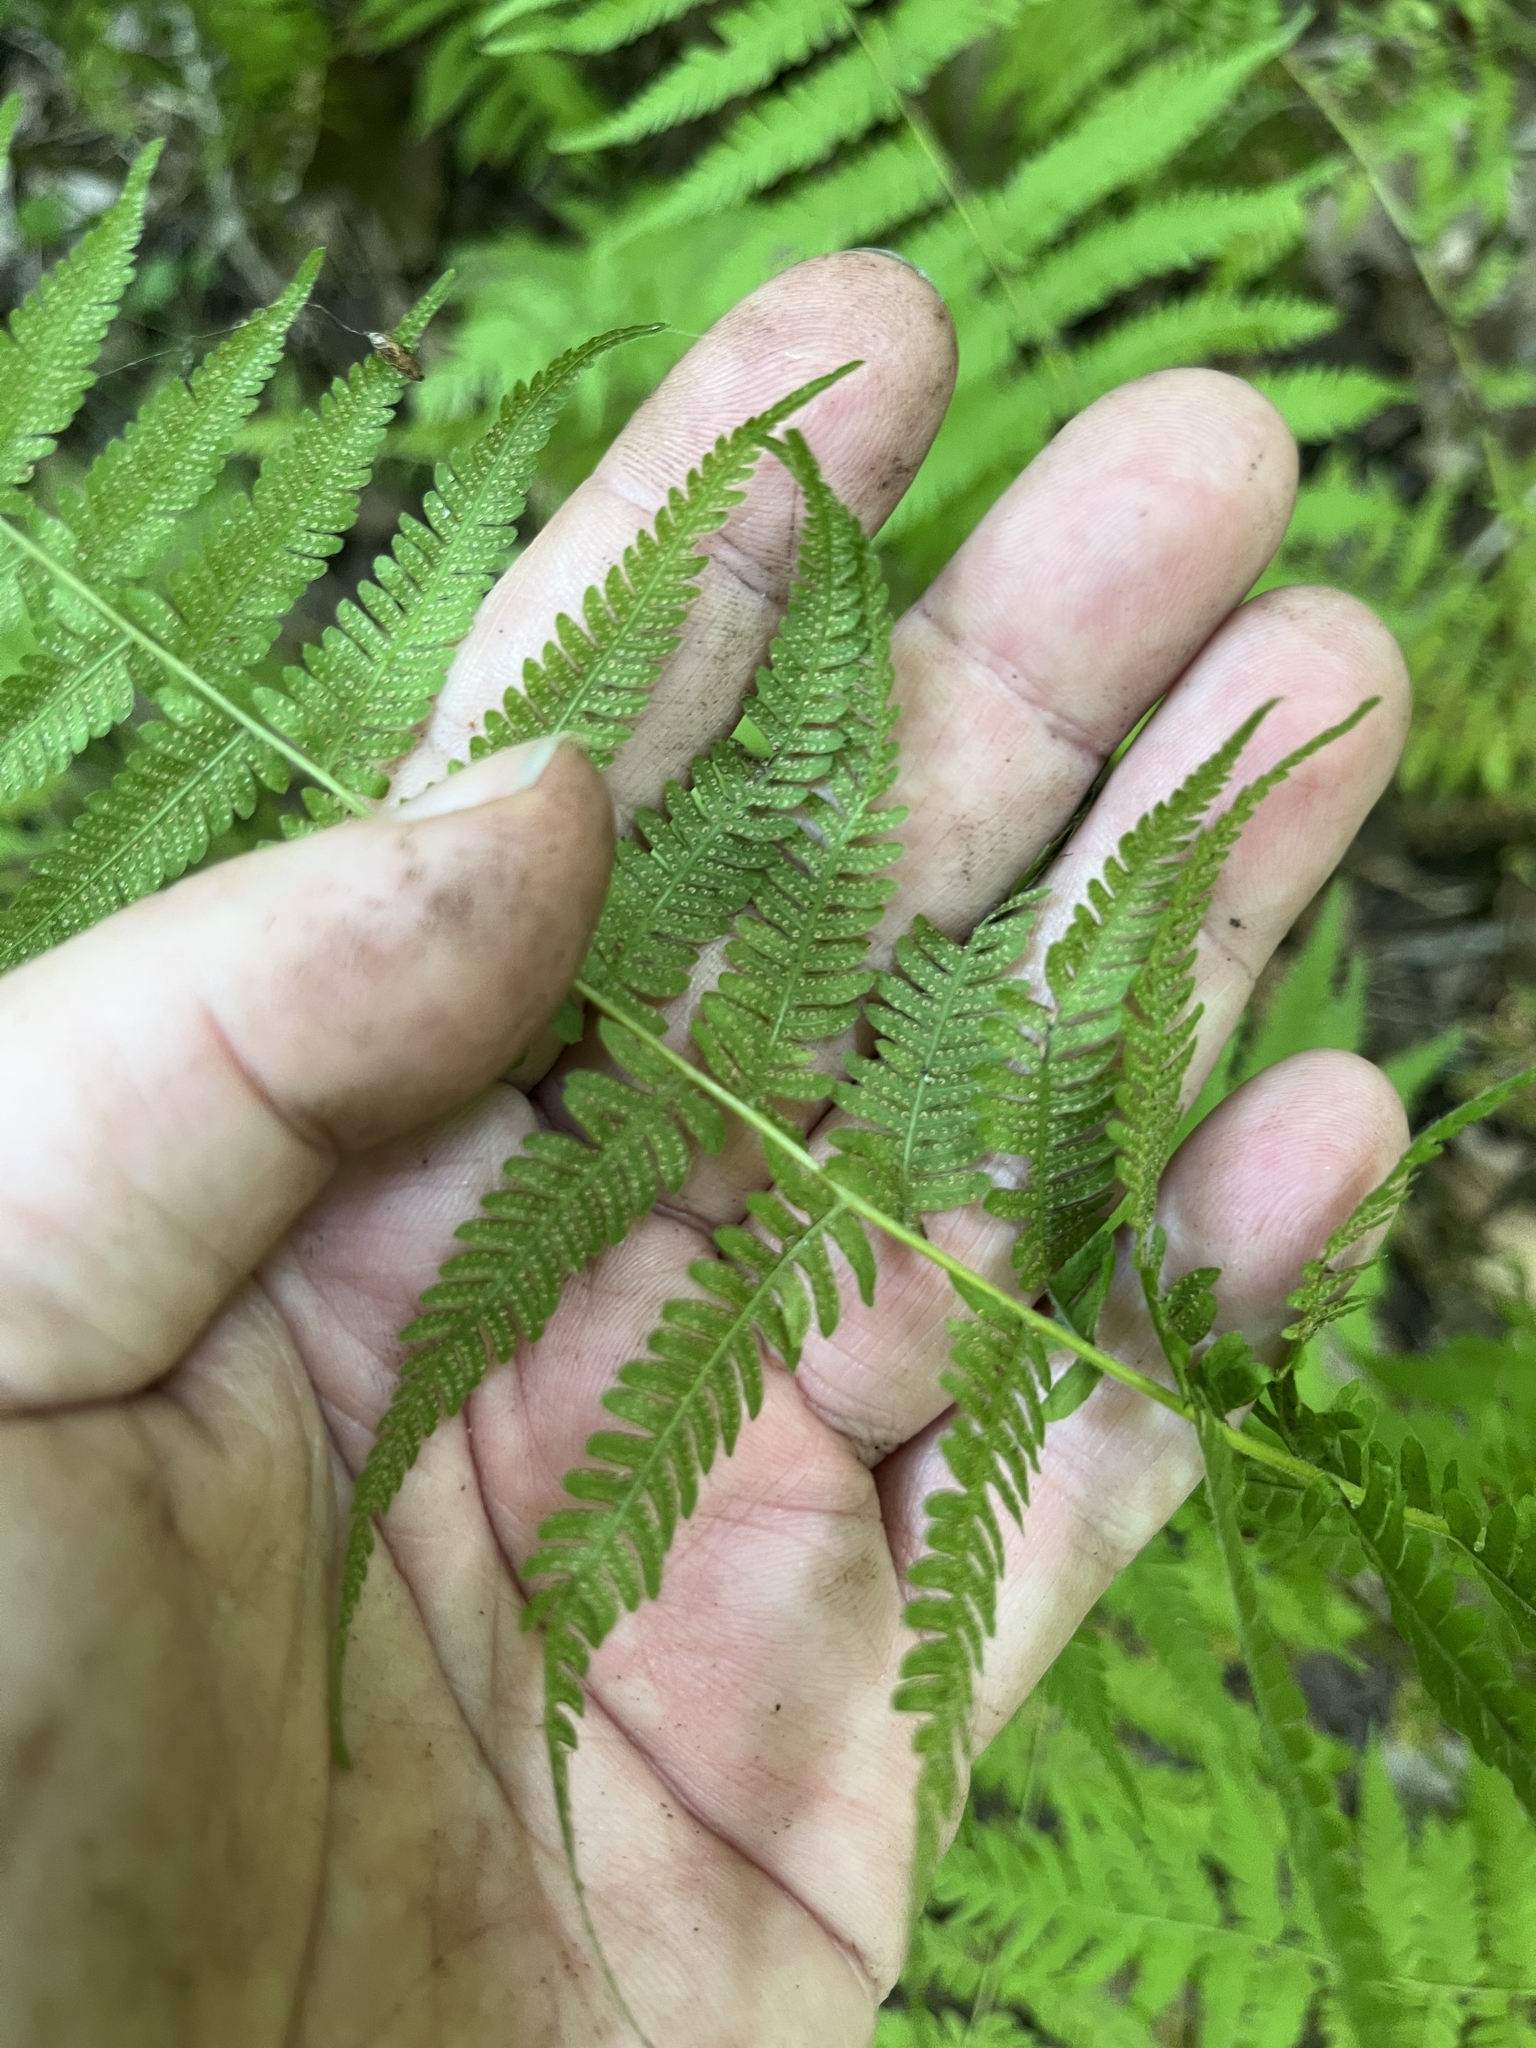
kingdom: Plantae
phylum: Tracheophyta
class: Polypodiopsida
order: Polypodiales
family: Thelypteridaceae
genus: Amauropelta
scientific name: Amauropelta noveboracensis
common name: New york fern
